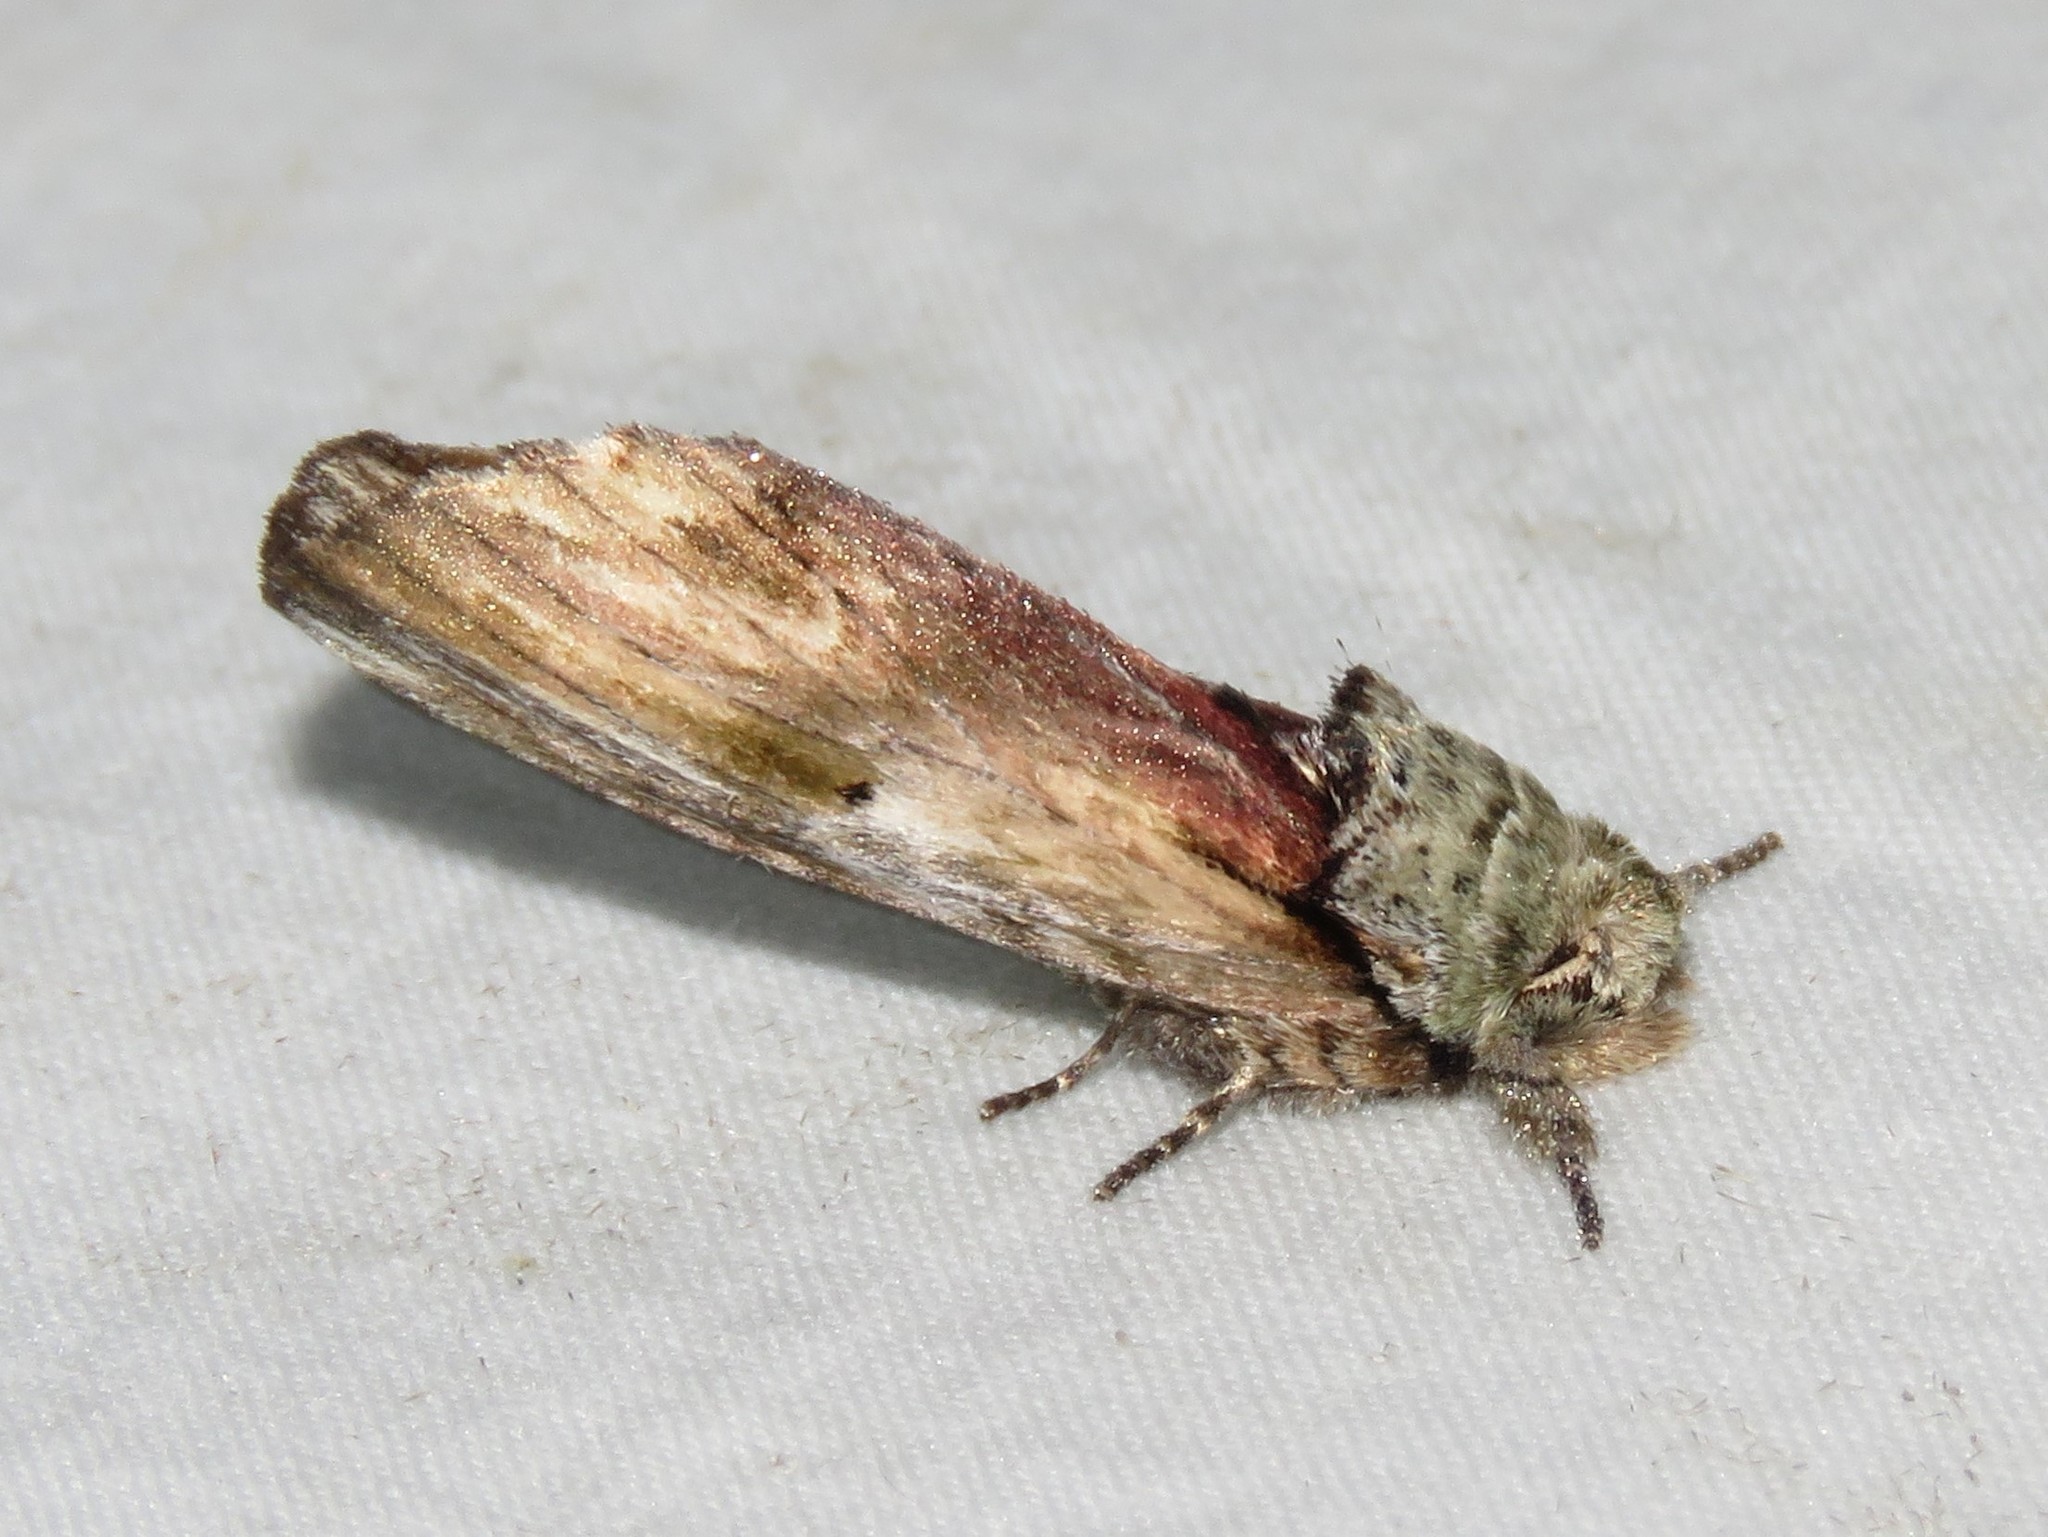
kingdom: Animalia
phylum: Arthropoda
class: Insecta
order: Lepidoptera
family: Notodontidae
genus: Schizura
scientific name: Schizura
